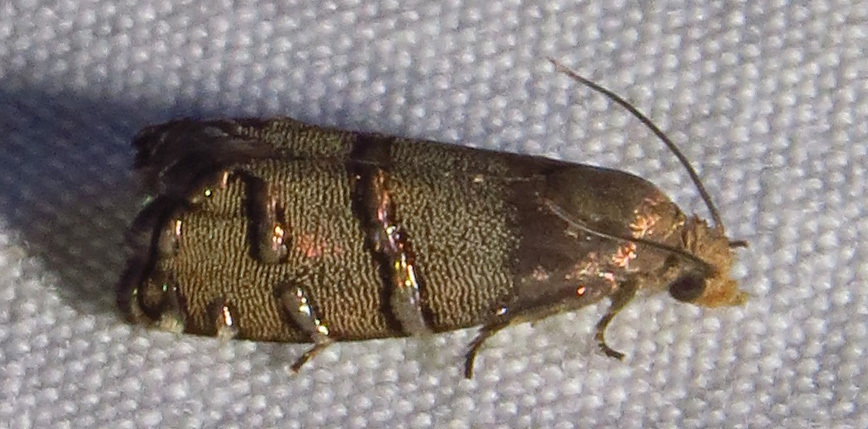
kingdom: Animalia
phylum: Arthropoda
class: Insecta
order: Lepidoptera
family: Tortricidae
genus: Cydia
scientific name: Cydia ingens
